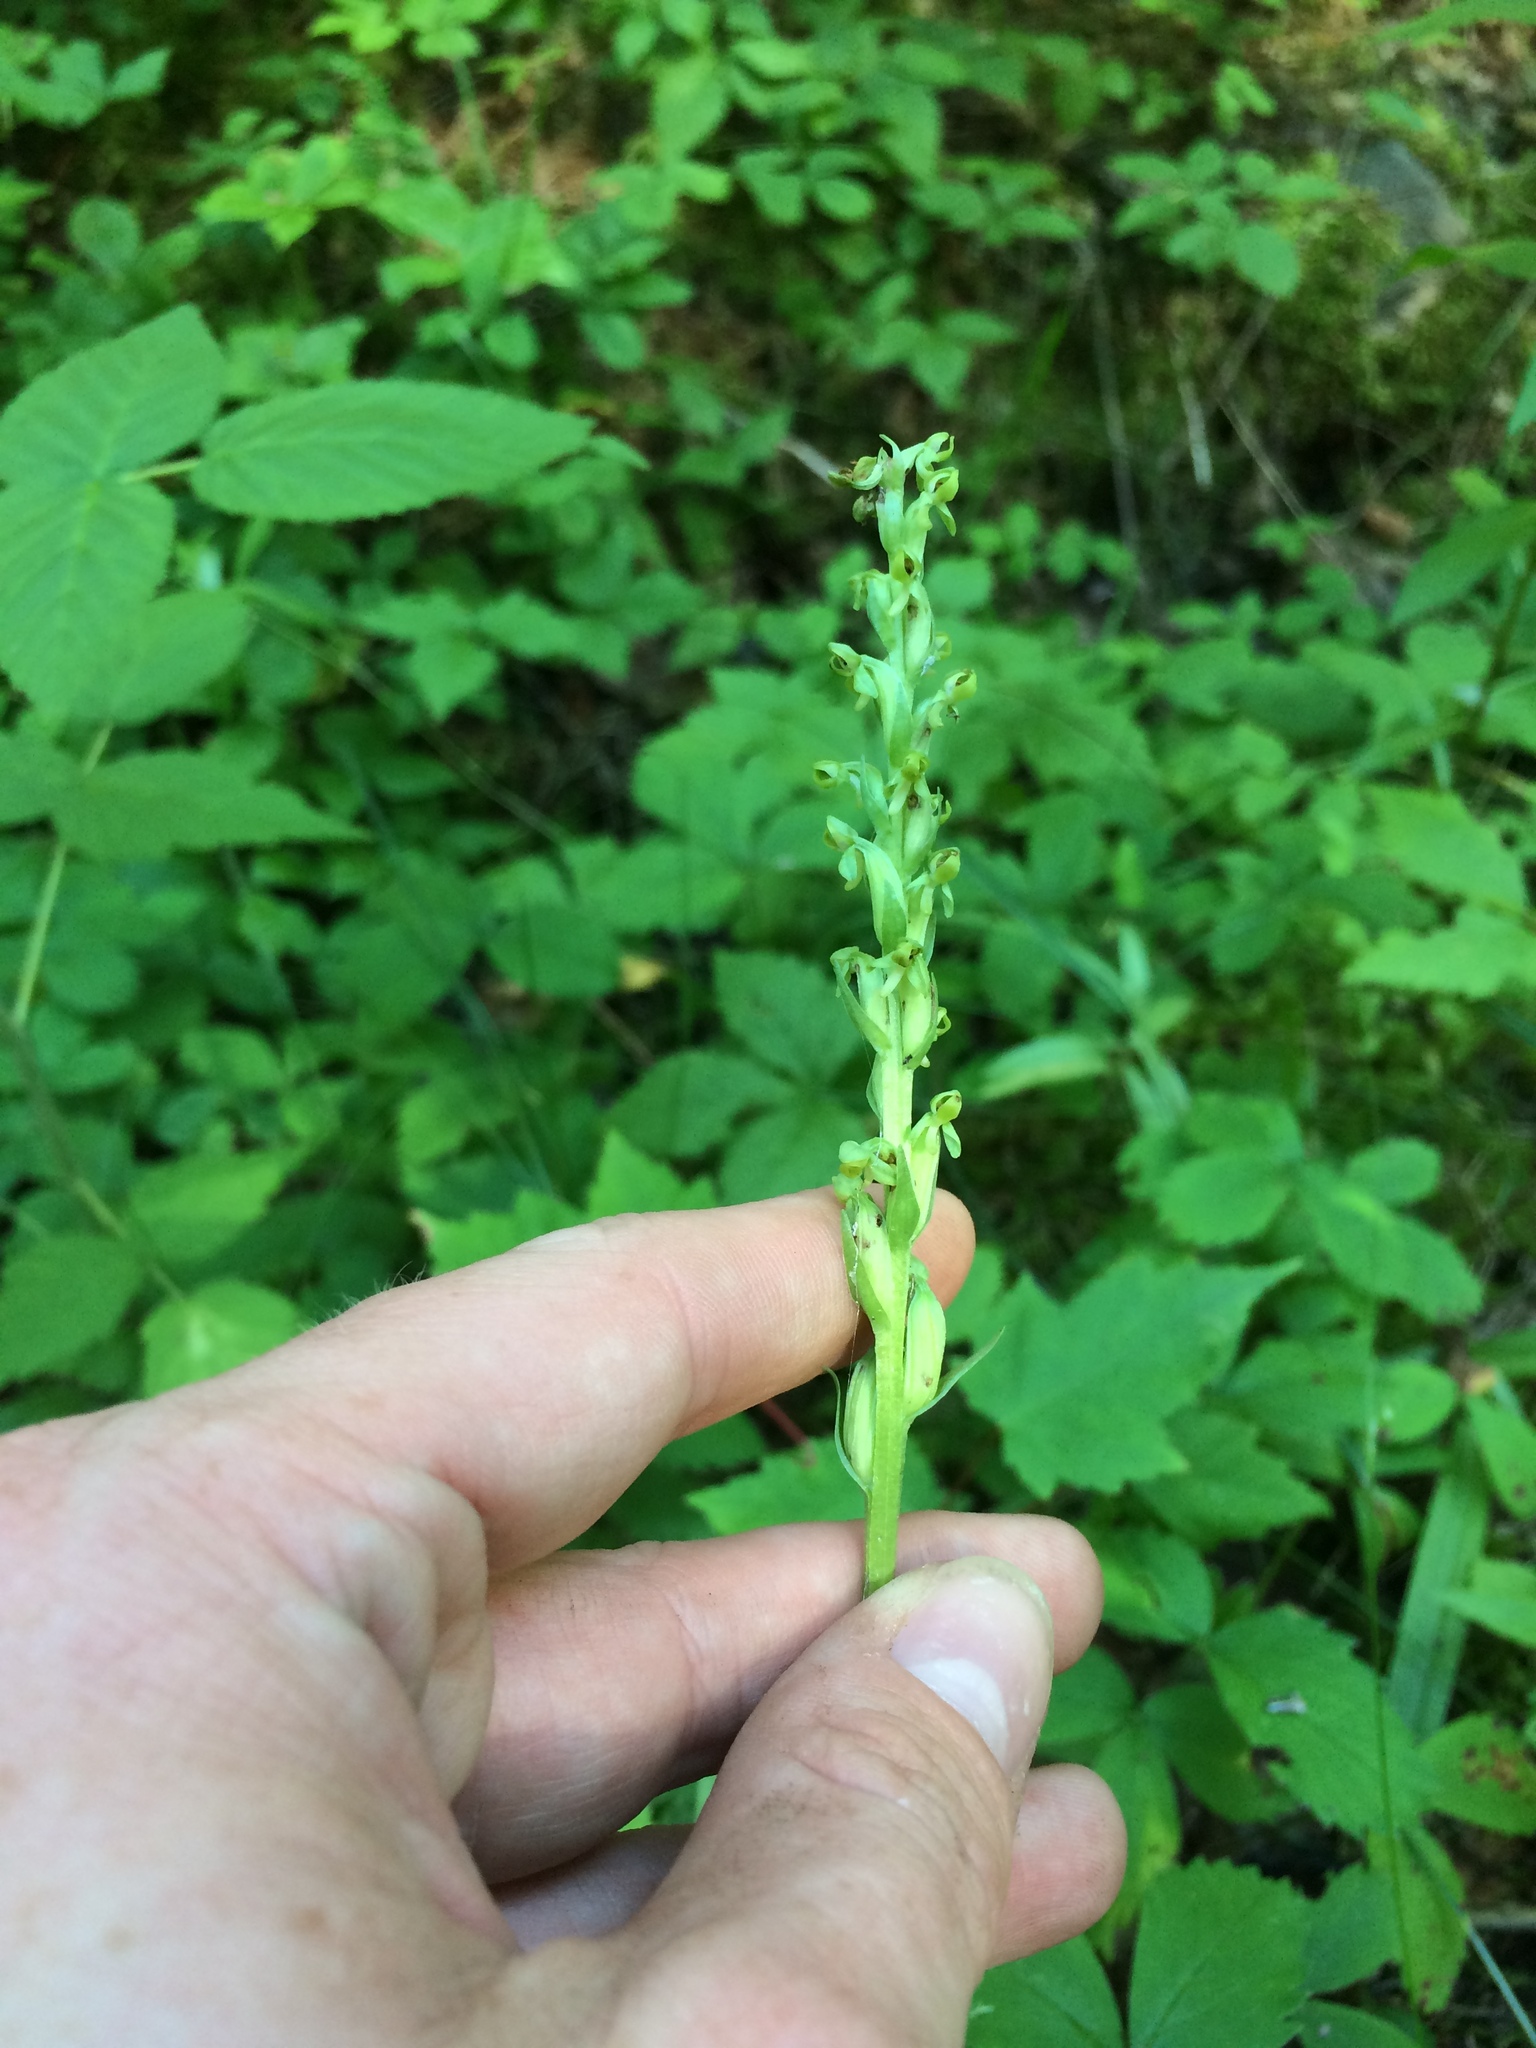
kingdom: Plantae
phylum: Tracheophyta
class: Liliopsida
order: Asparagales
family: Orchidaceae
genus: Platanthera
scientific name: Platanthera aquilonis
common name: Northern green orchid
